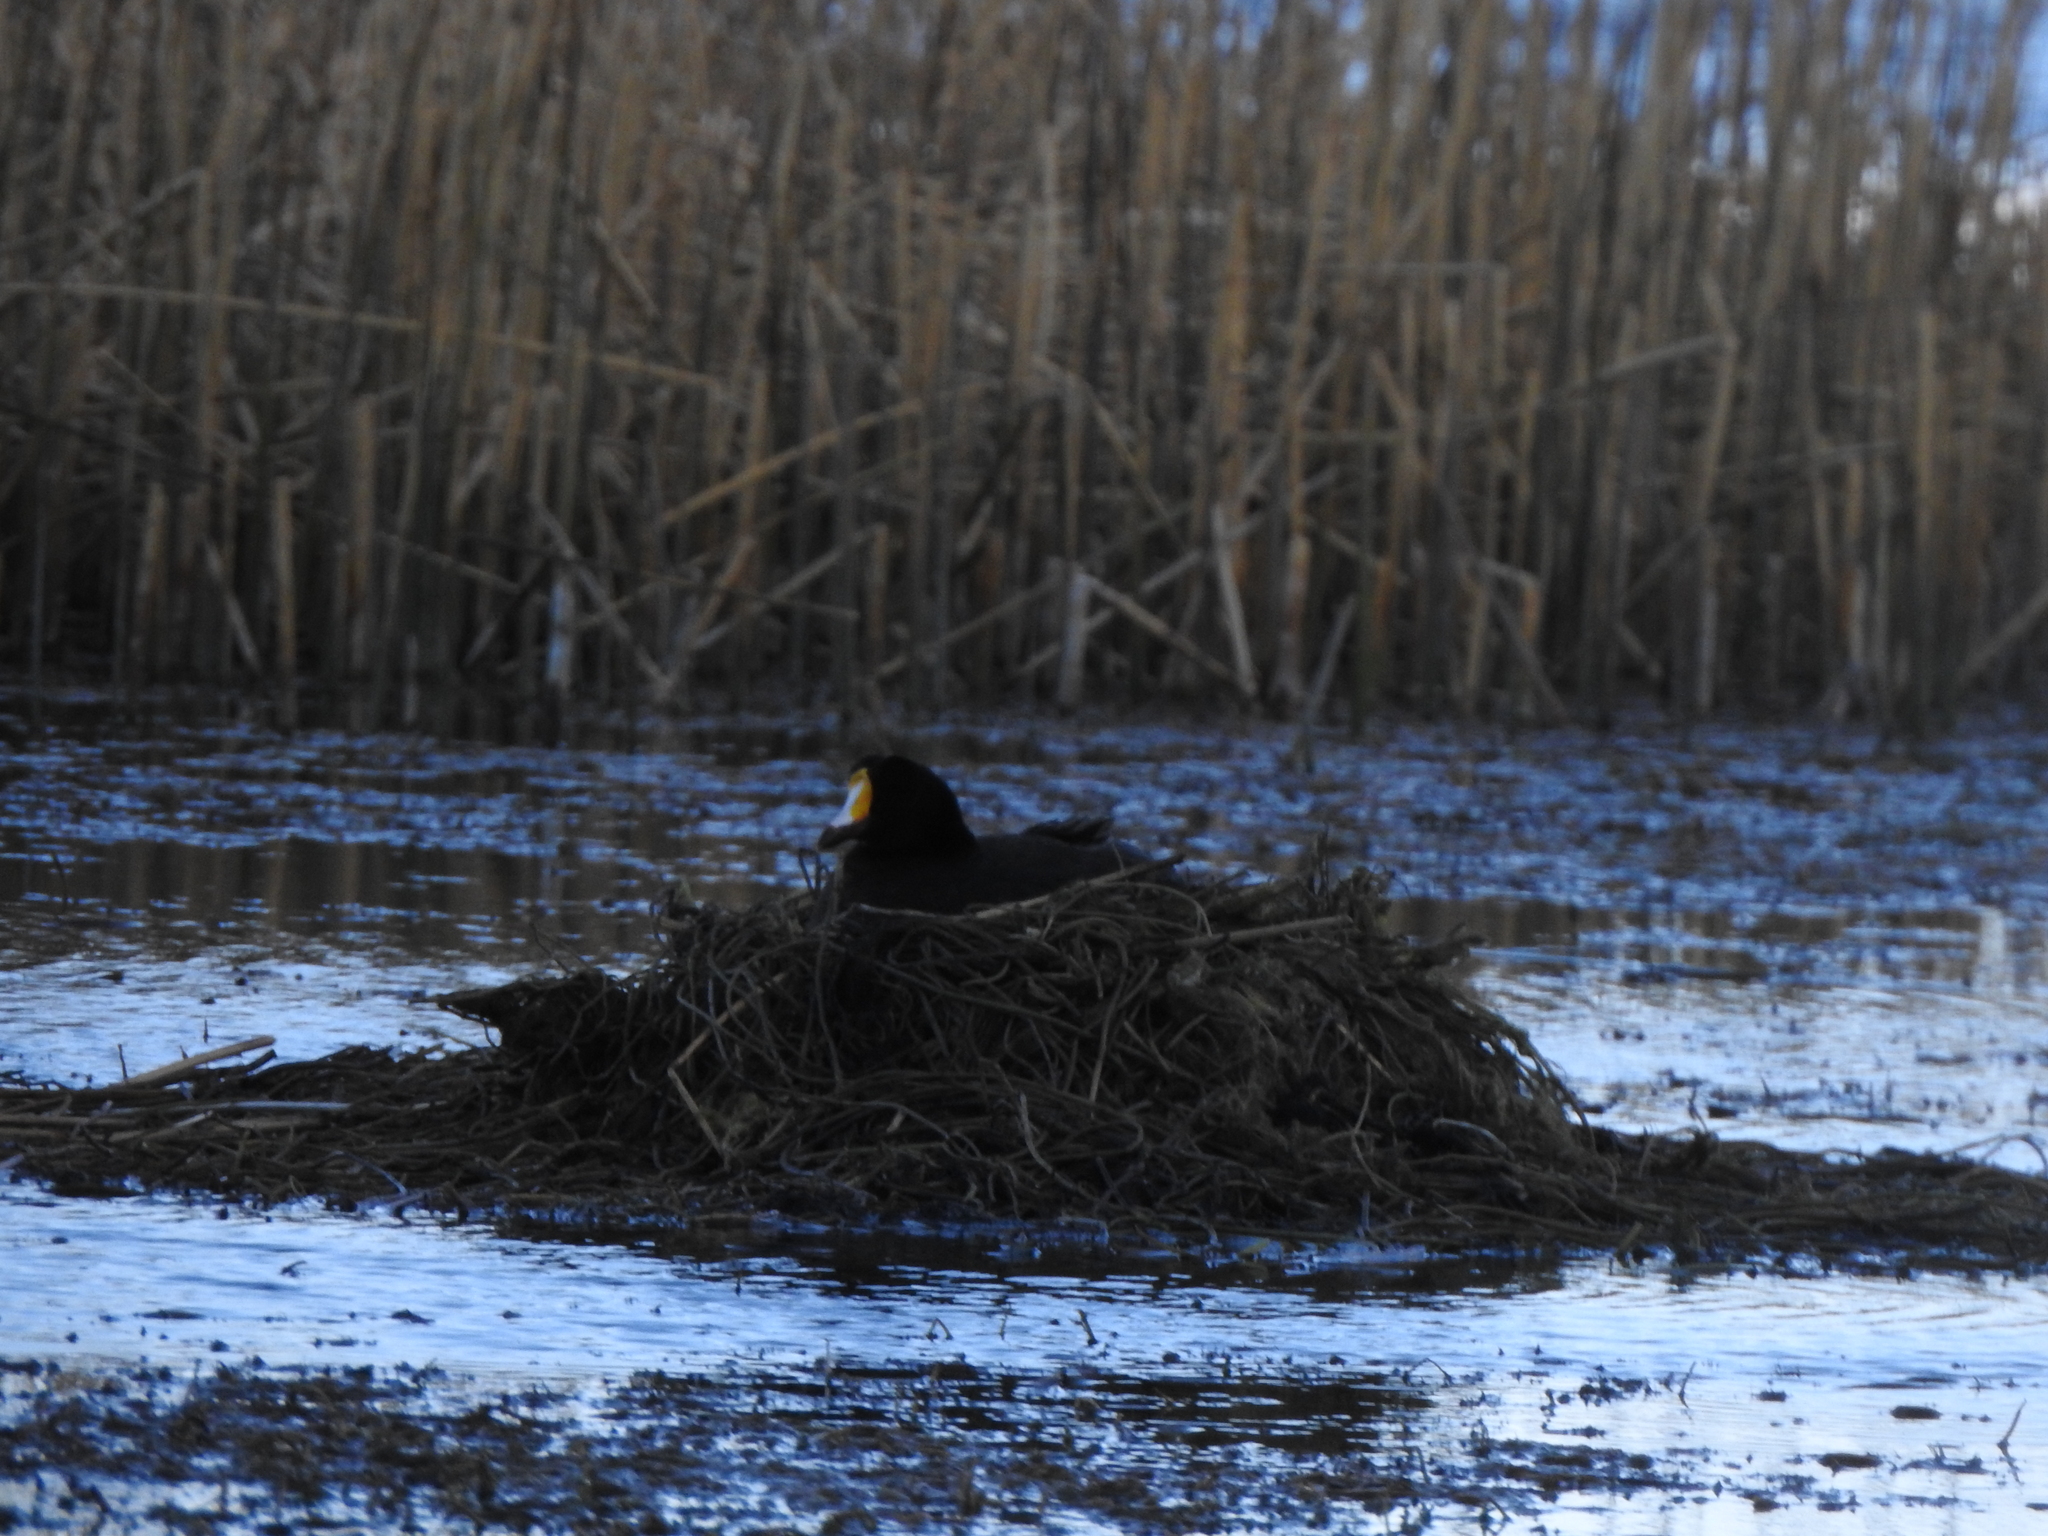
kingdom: Animalia
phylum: Chordata
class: Aves
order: Gruiformes
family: Rallidae
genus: Fulica
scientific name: Fulica gigantea
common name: Giant coot
